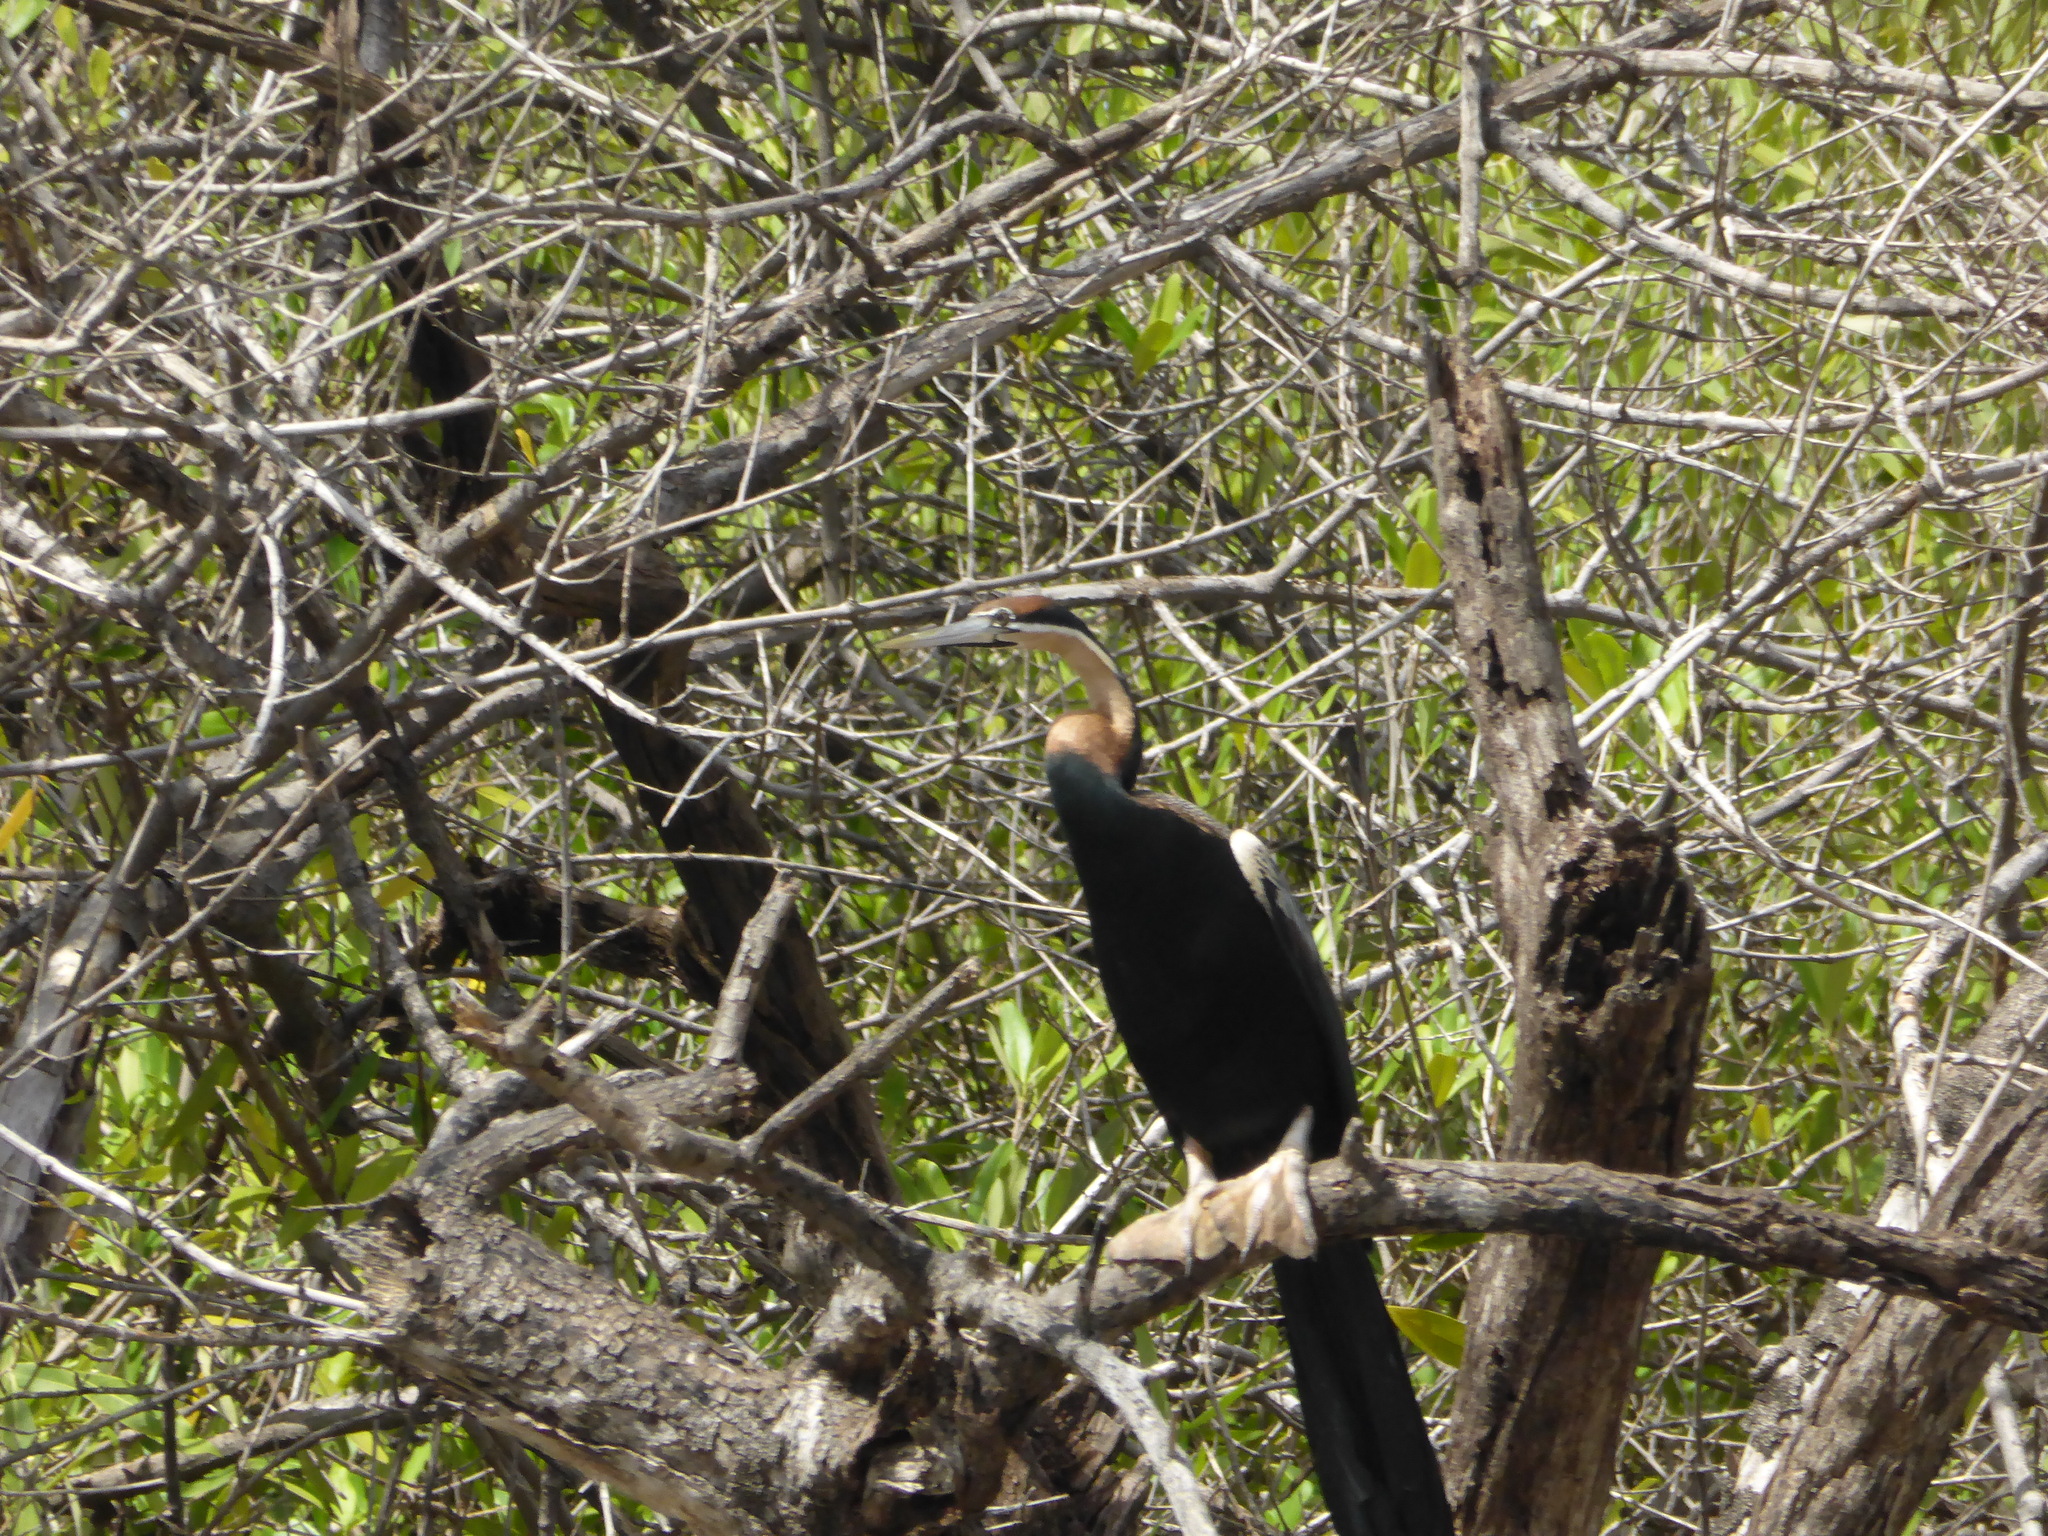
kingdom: Animalia
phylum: Chordata
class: Aves
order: Suliformes
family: Anhingidae
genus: Anhinga
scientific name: Anhinga rufa
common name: African darter
